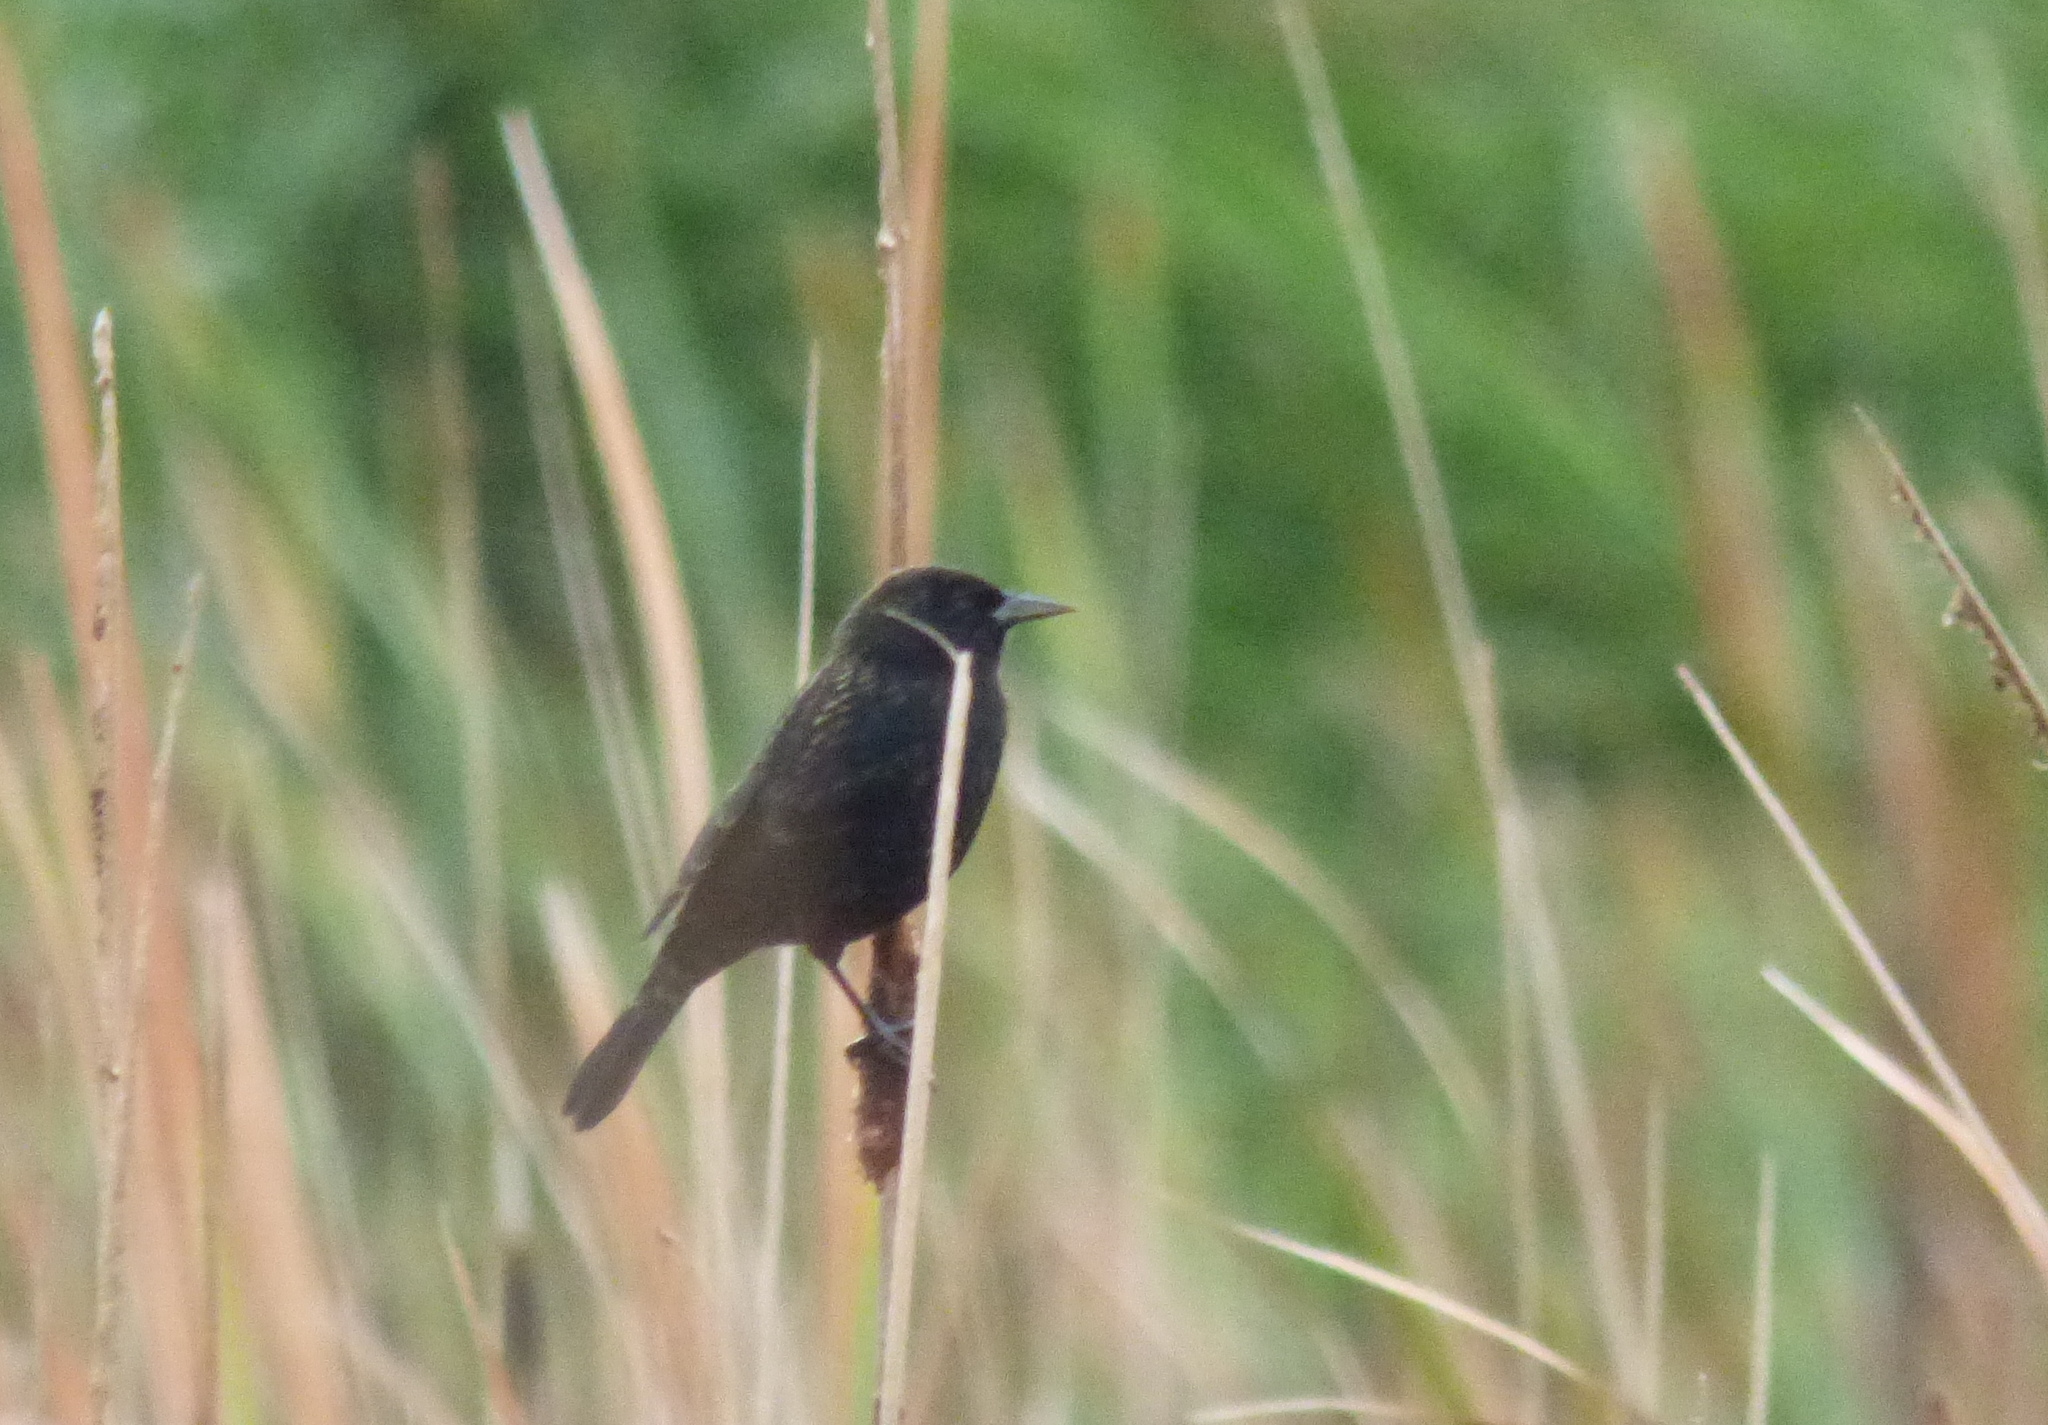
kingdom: Animalia
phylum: Chordata
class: Aves
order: Passeriformes
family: Icteridae
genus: Agelasticus
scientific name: Agelasticus thilius
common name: Yellow-winged blackbird
